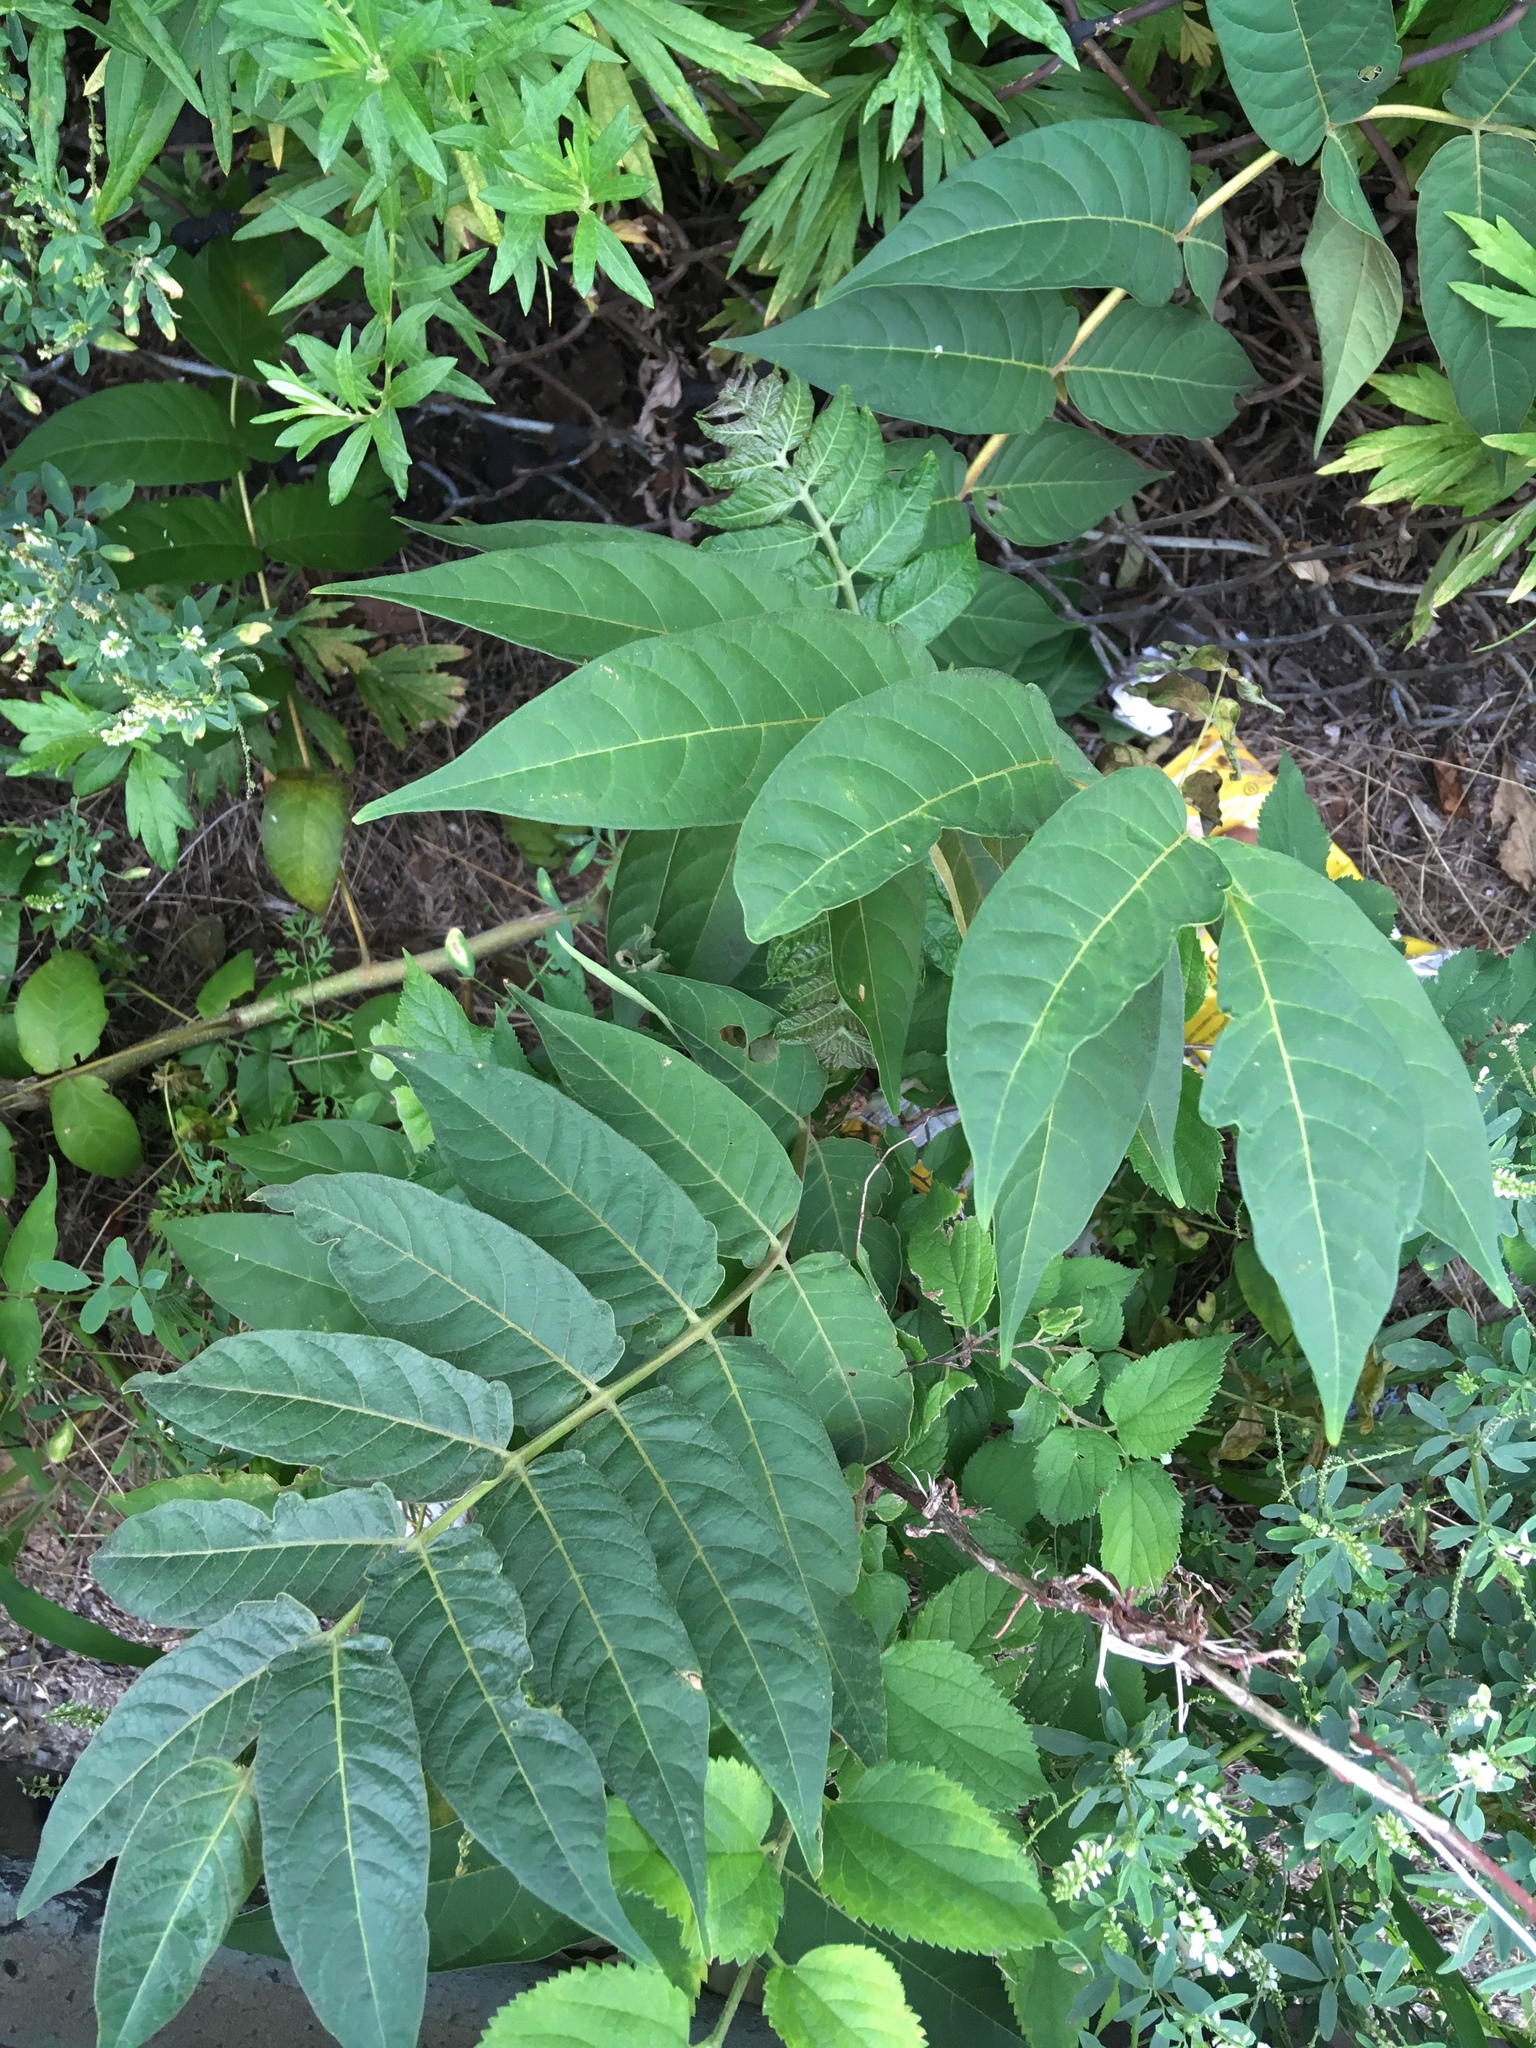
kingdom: Plantae
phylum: Tracheophyta
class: Magnoliopsida
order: Sapindales
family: Simaroubaceae
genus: Ailanthus
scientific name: Ailanthus altissima
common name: Tree-of-heaven
